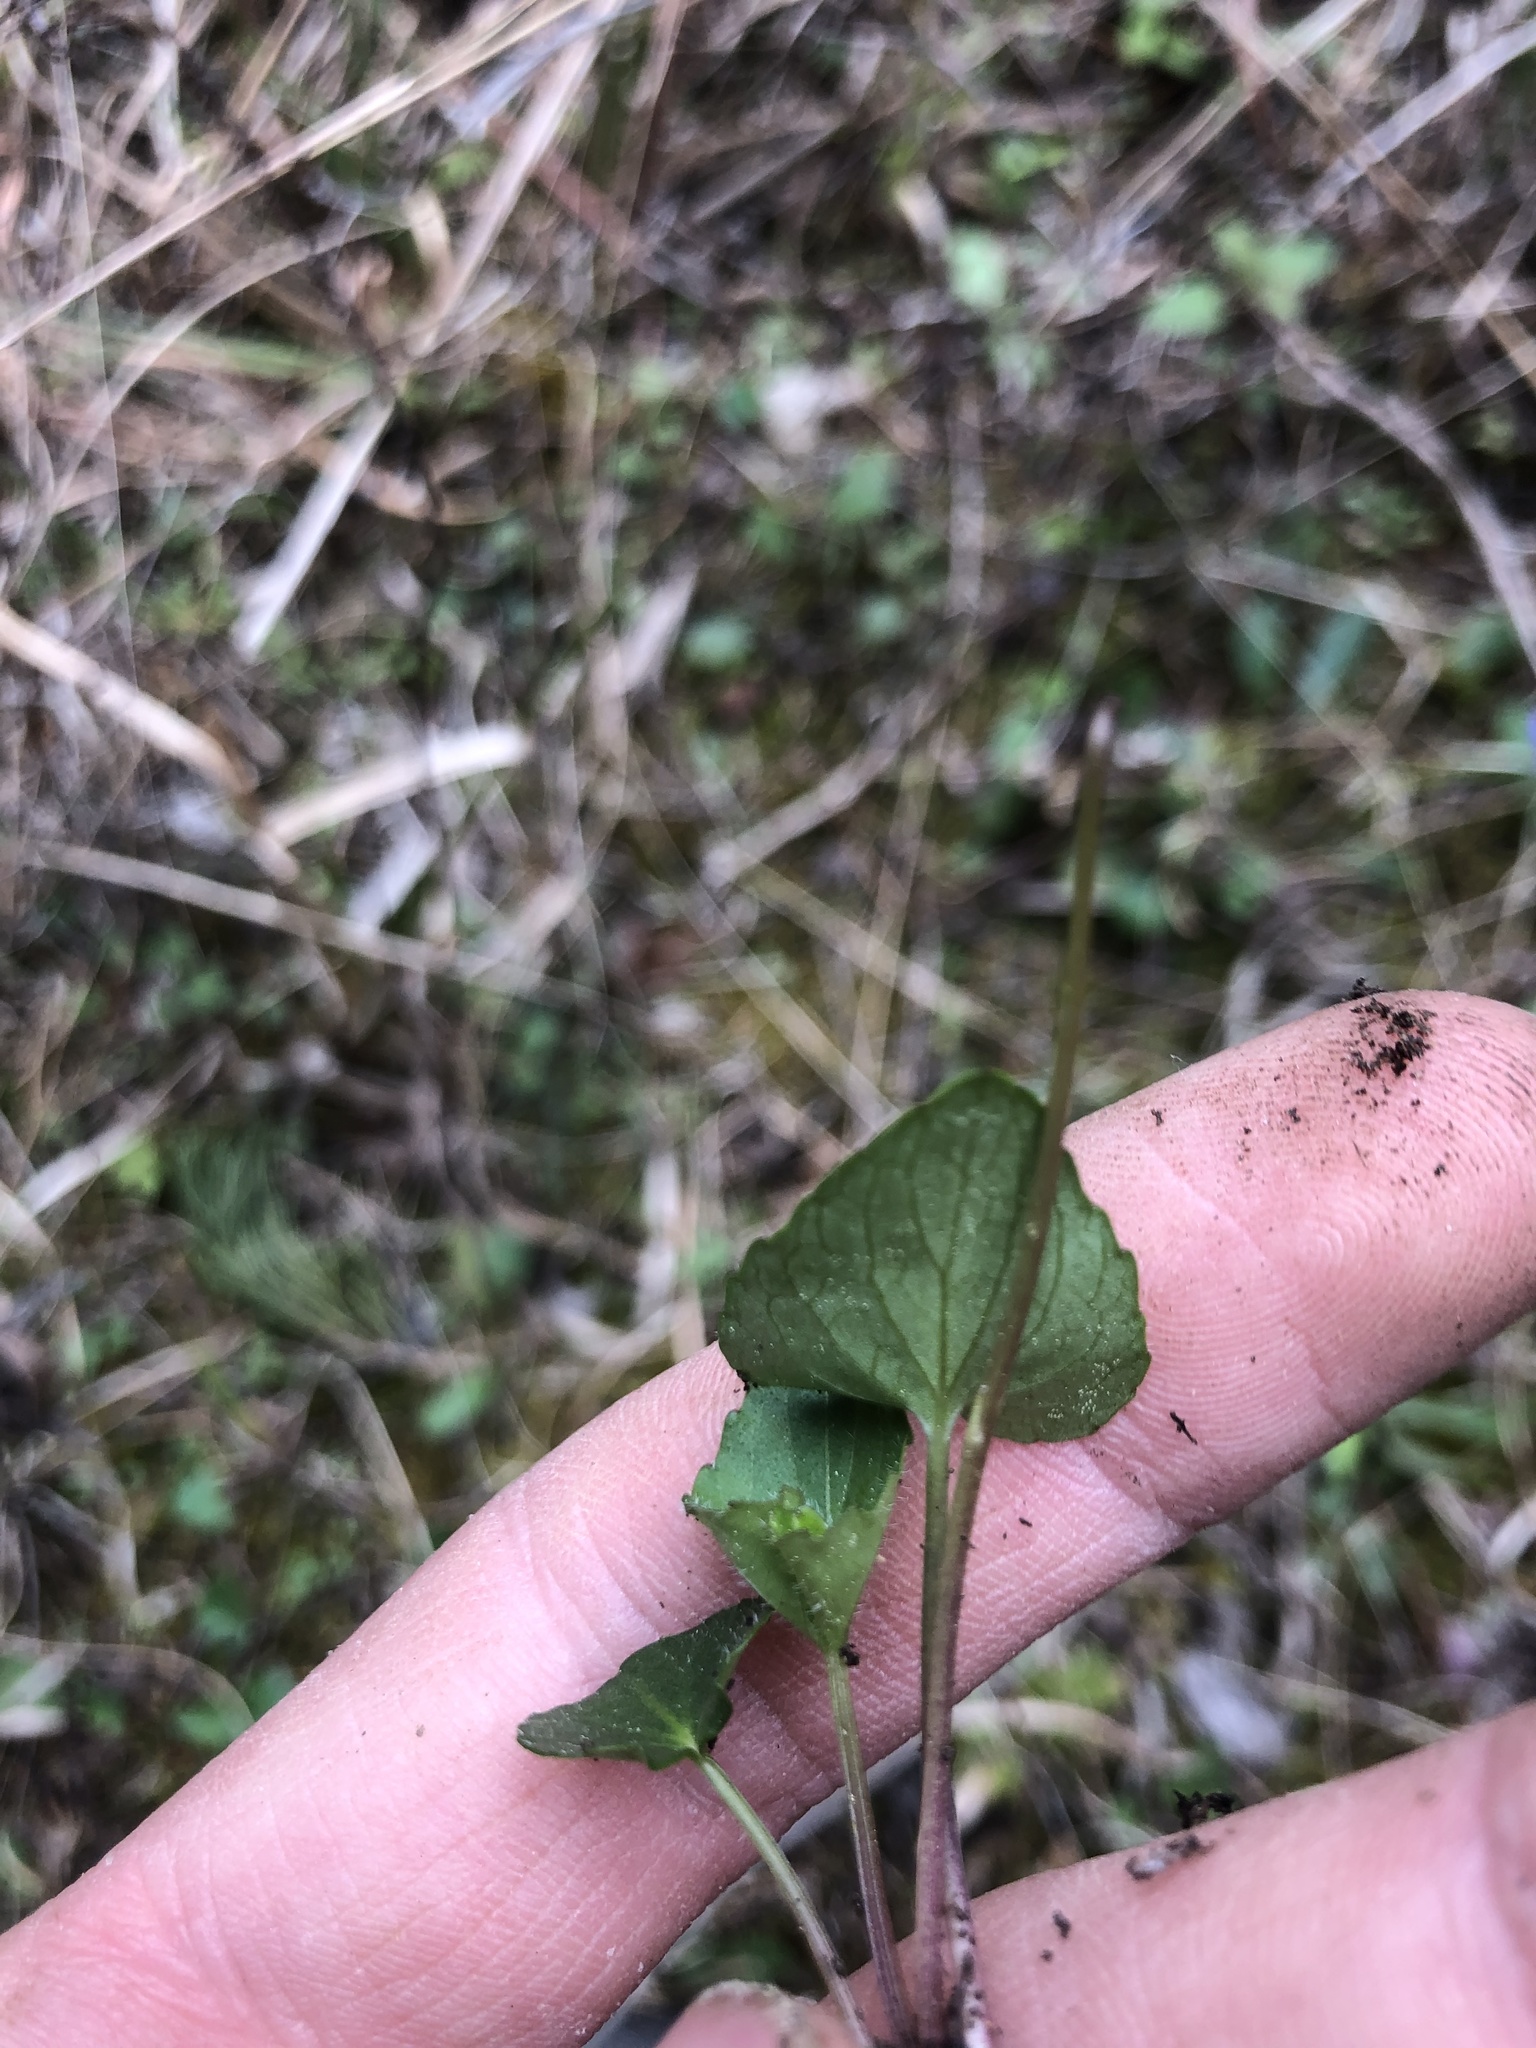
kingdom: Plantae
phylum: Tracheophyta
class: Magnoliopsida
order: Malpighiales
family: Violaceae
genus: Viola
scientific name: Viola sororia
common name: Dooryard violet
